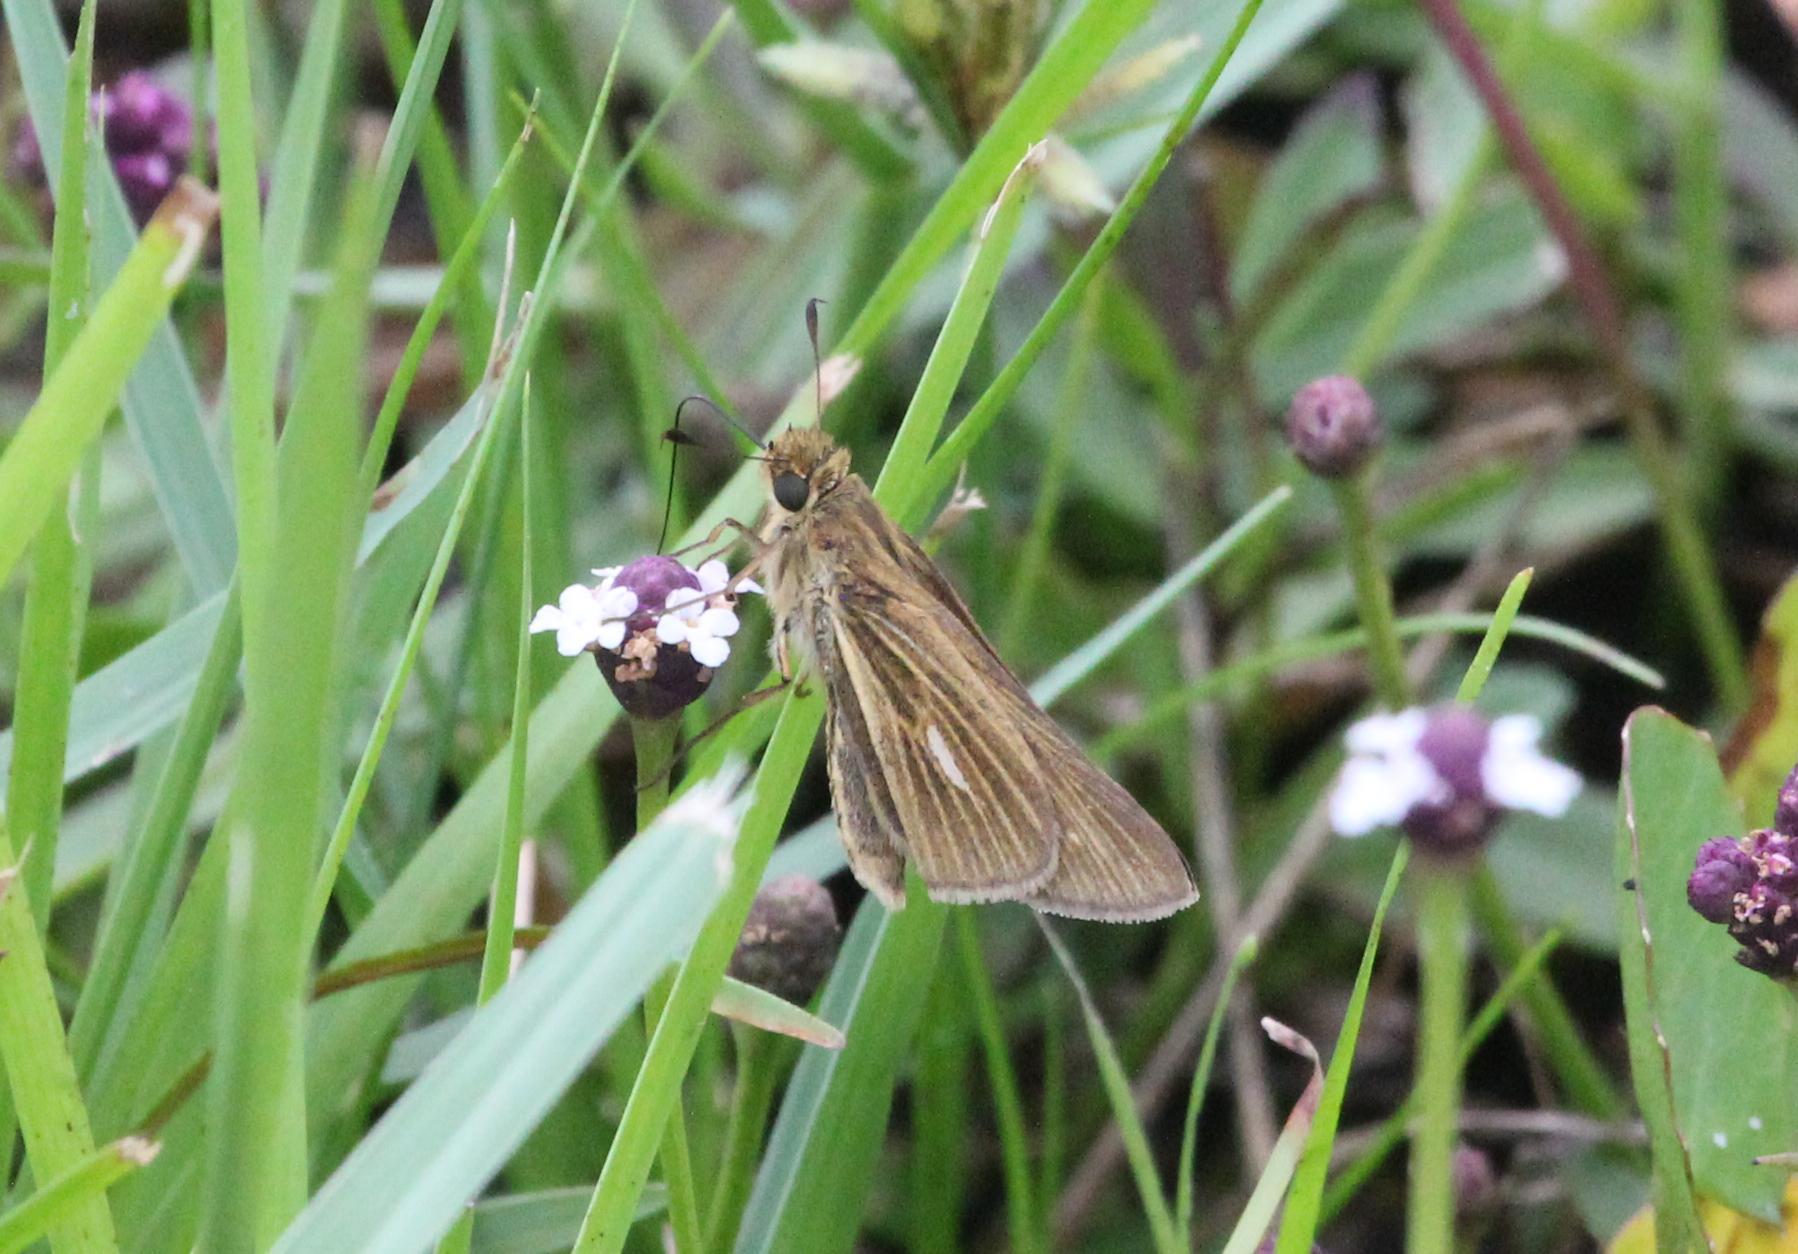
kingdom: Animalia
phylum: Arthropoda
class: Insecta
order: Lepidoptera
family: Hesperiidae
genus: Panoquina
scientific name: Panoquina panoquin
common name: Salt marsh skipper
